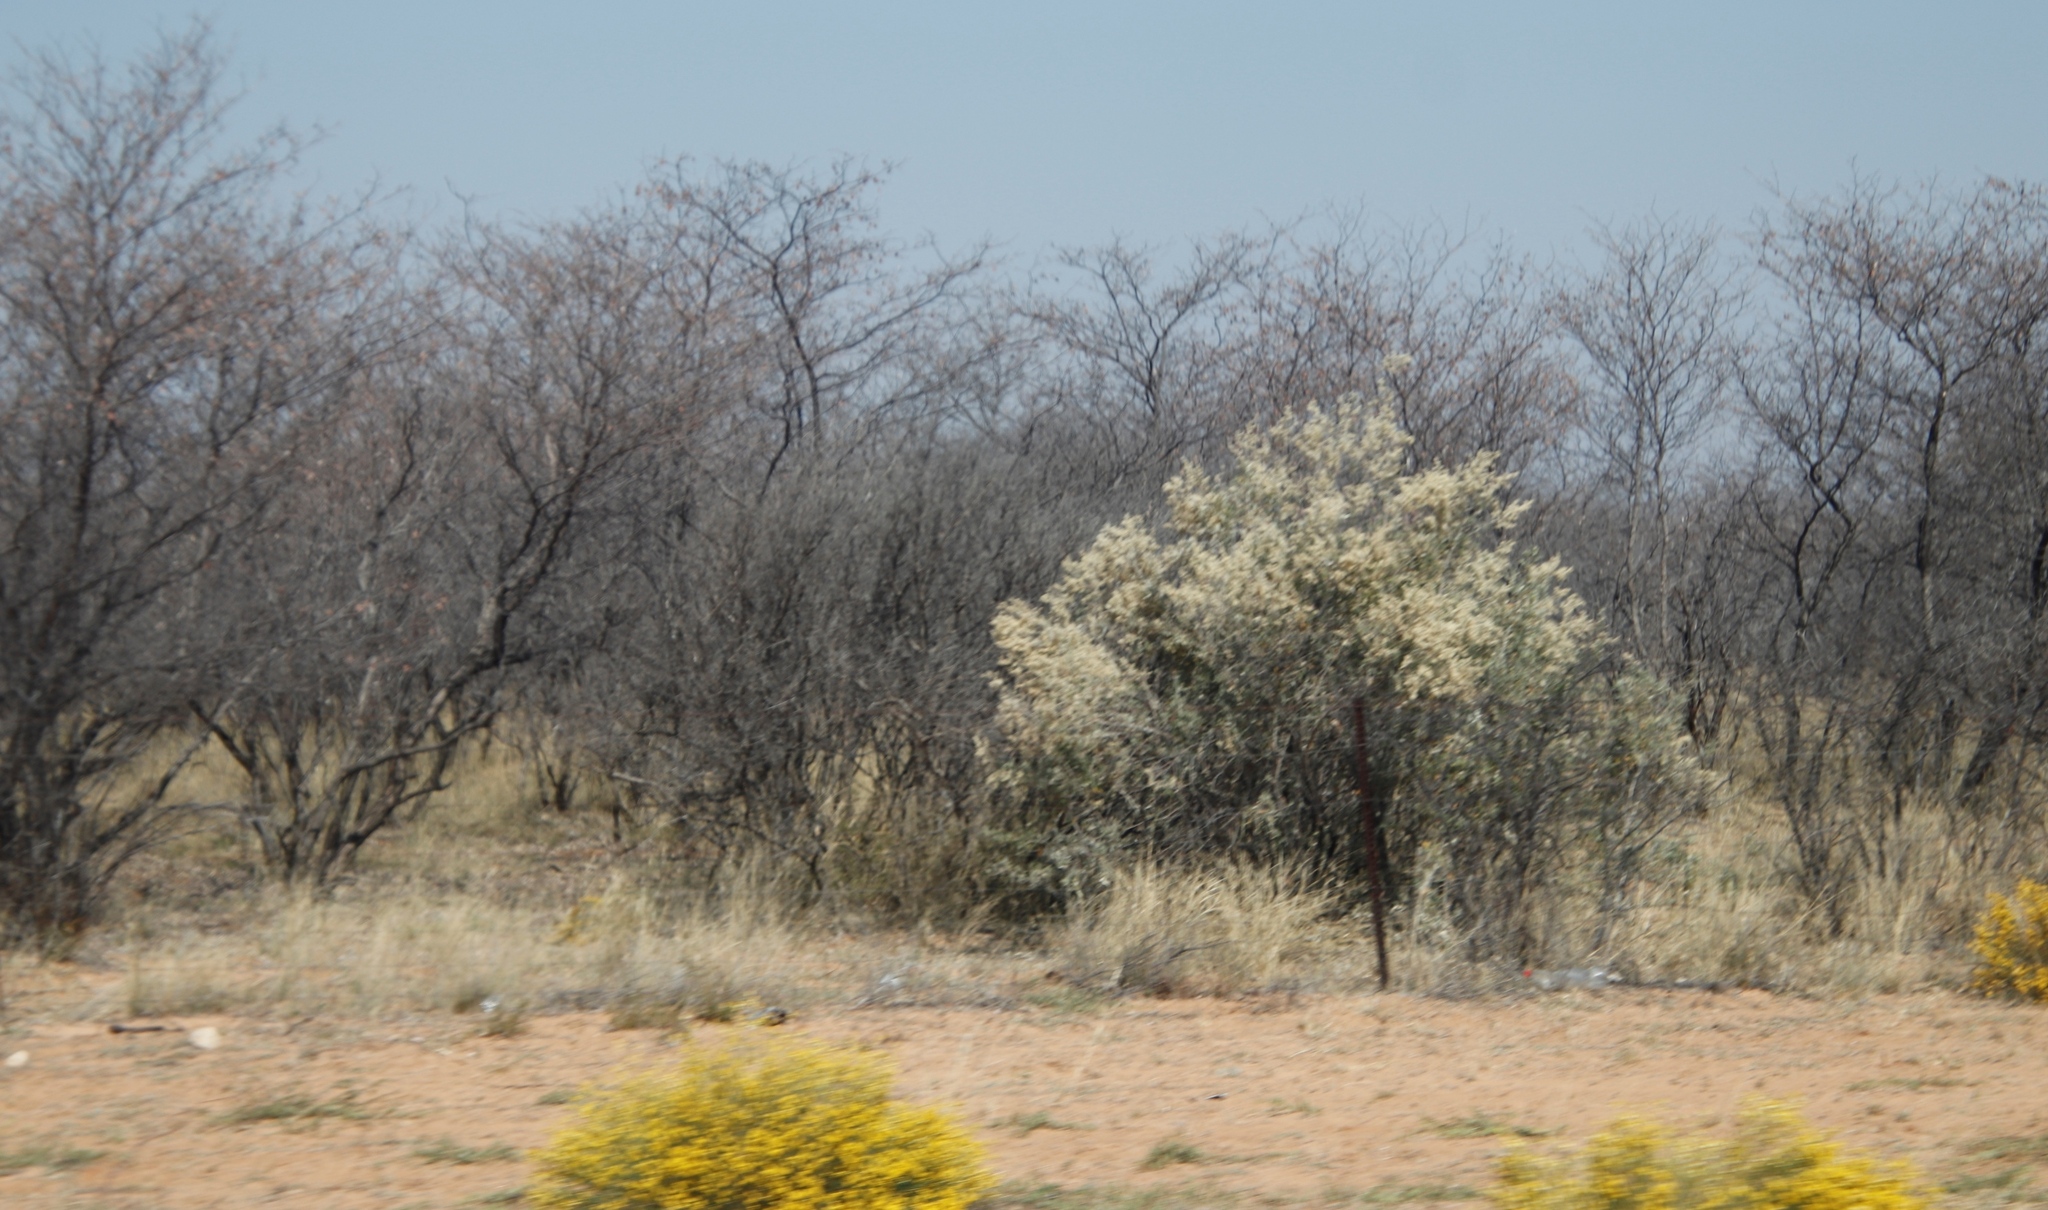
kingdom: Plantae
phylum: Tracheophyta
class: Magnoliopsida
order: Malvales
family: Thymelaeaceae
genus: Gnidia
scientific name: Gnidia polycephala
